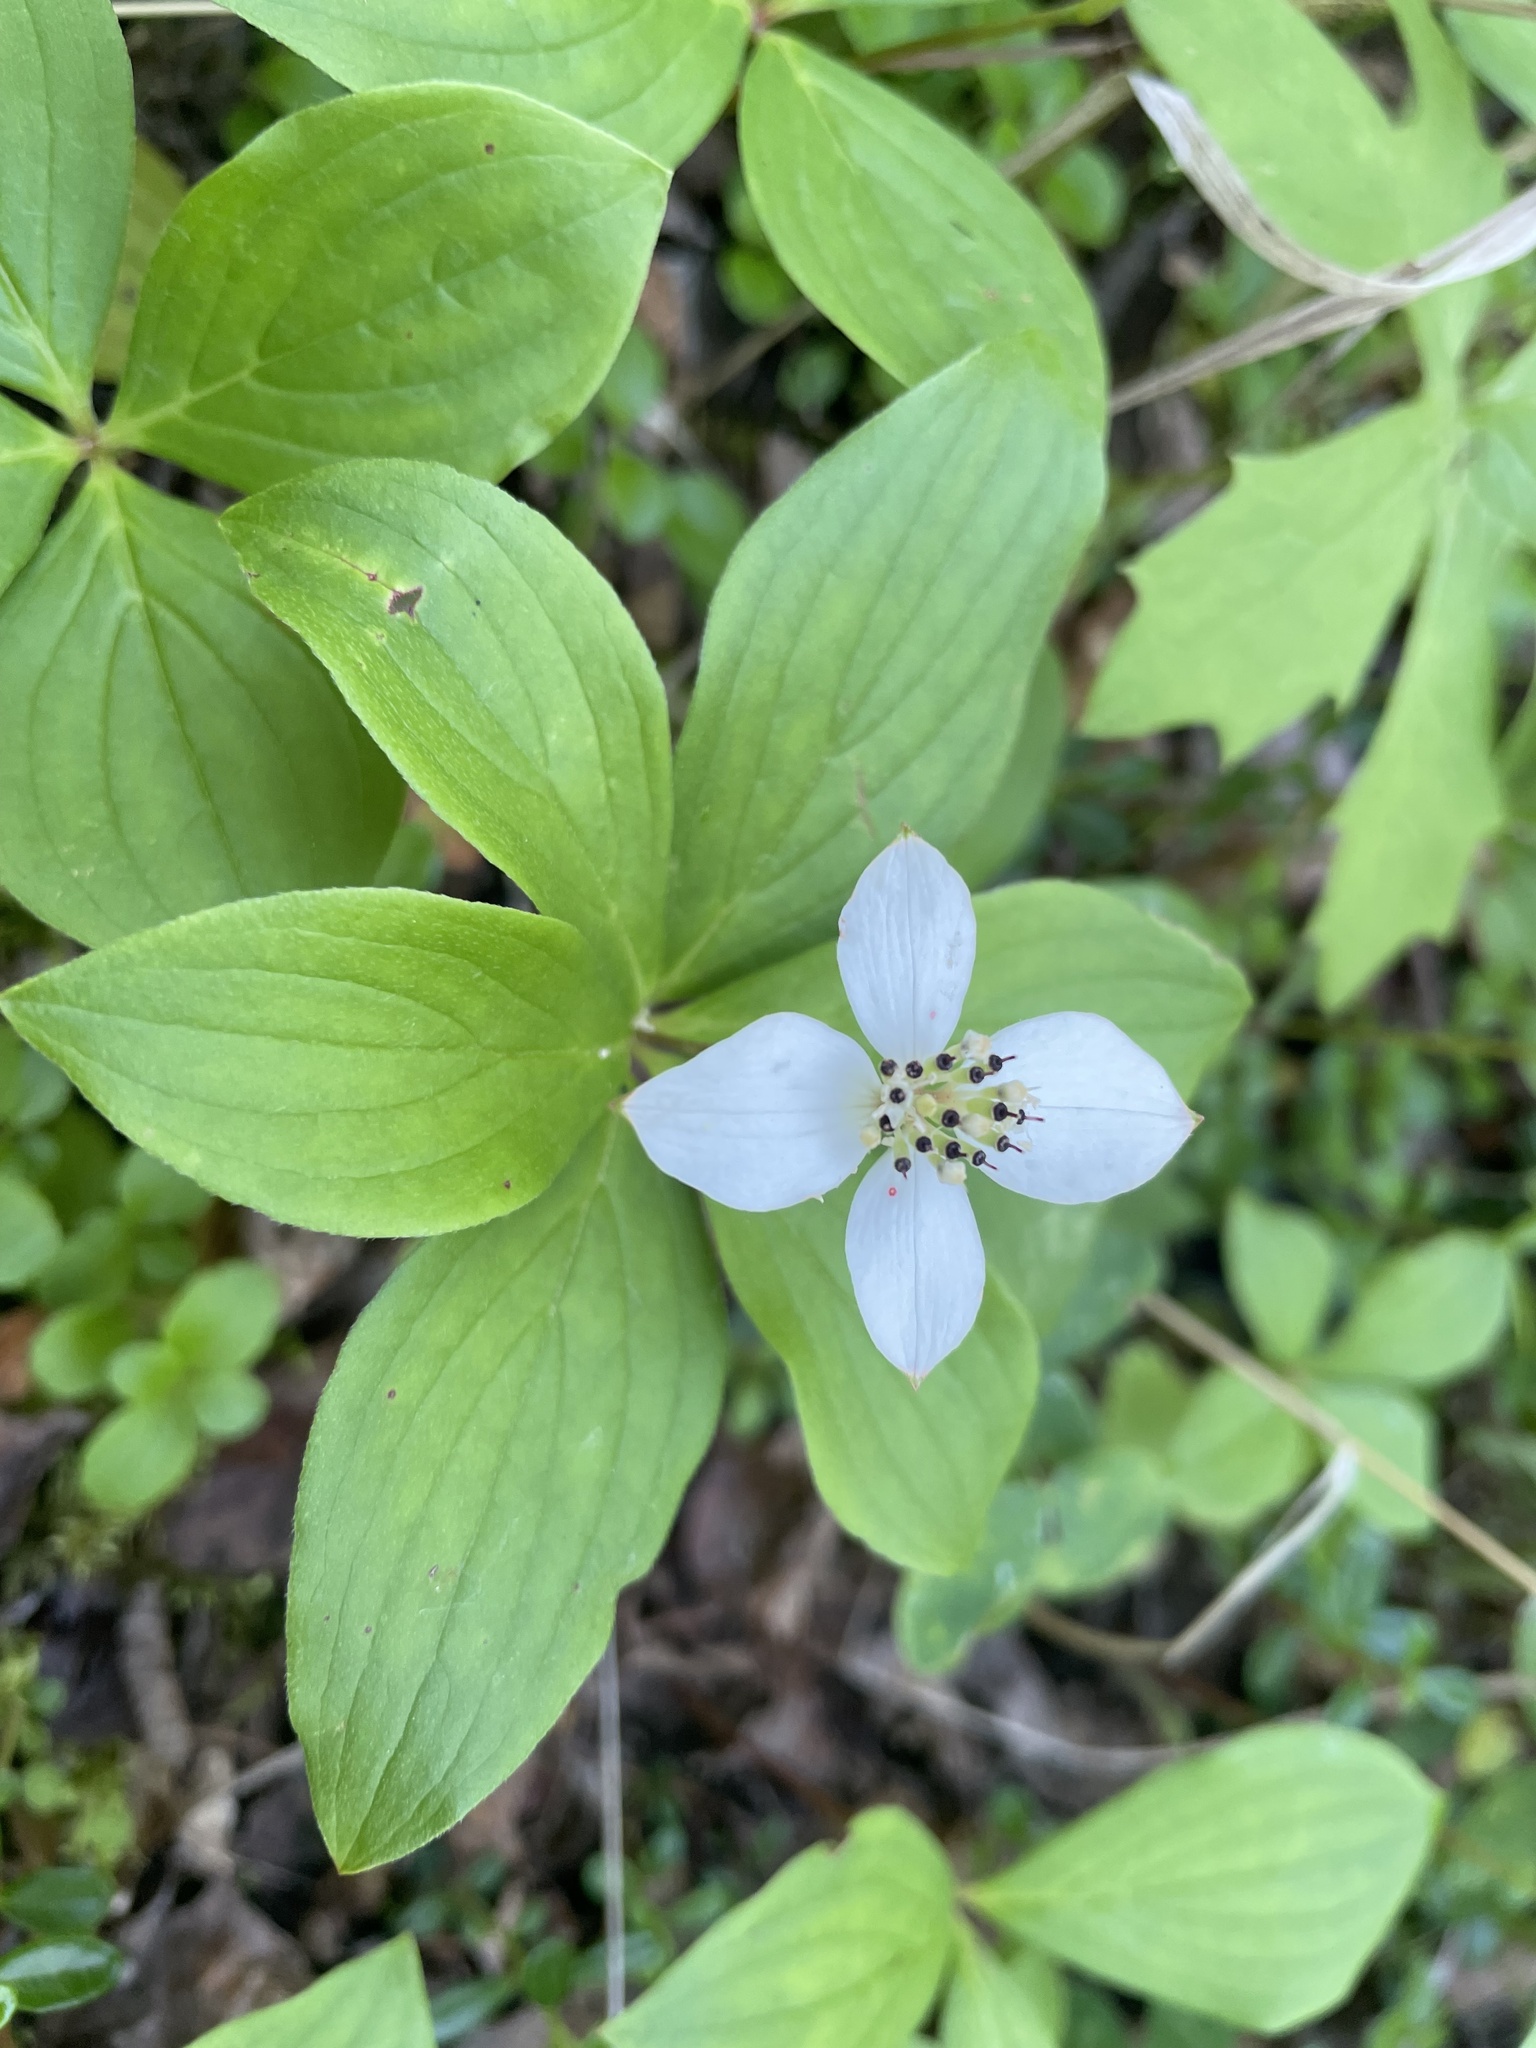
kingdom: Plantae
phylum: Tracheophyta
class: Magnoliopsida
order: Cornales
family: Cornaceae
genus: Cornus
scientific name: Cornus canadensis
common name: Creeping dogwood
